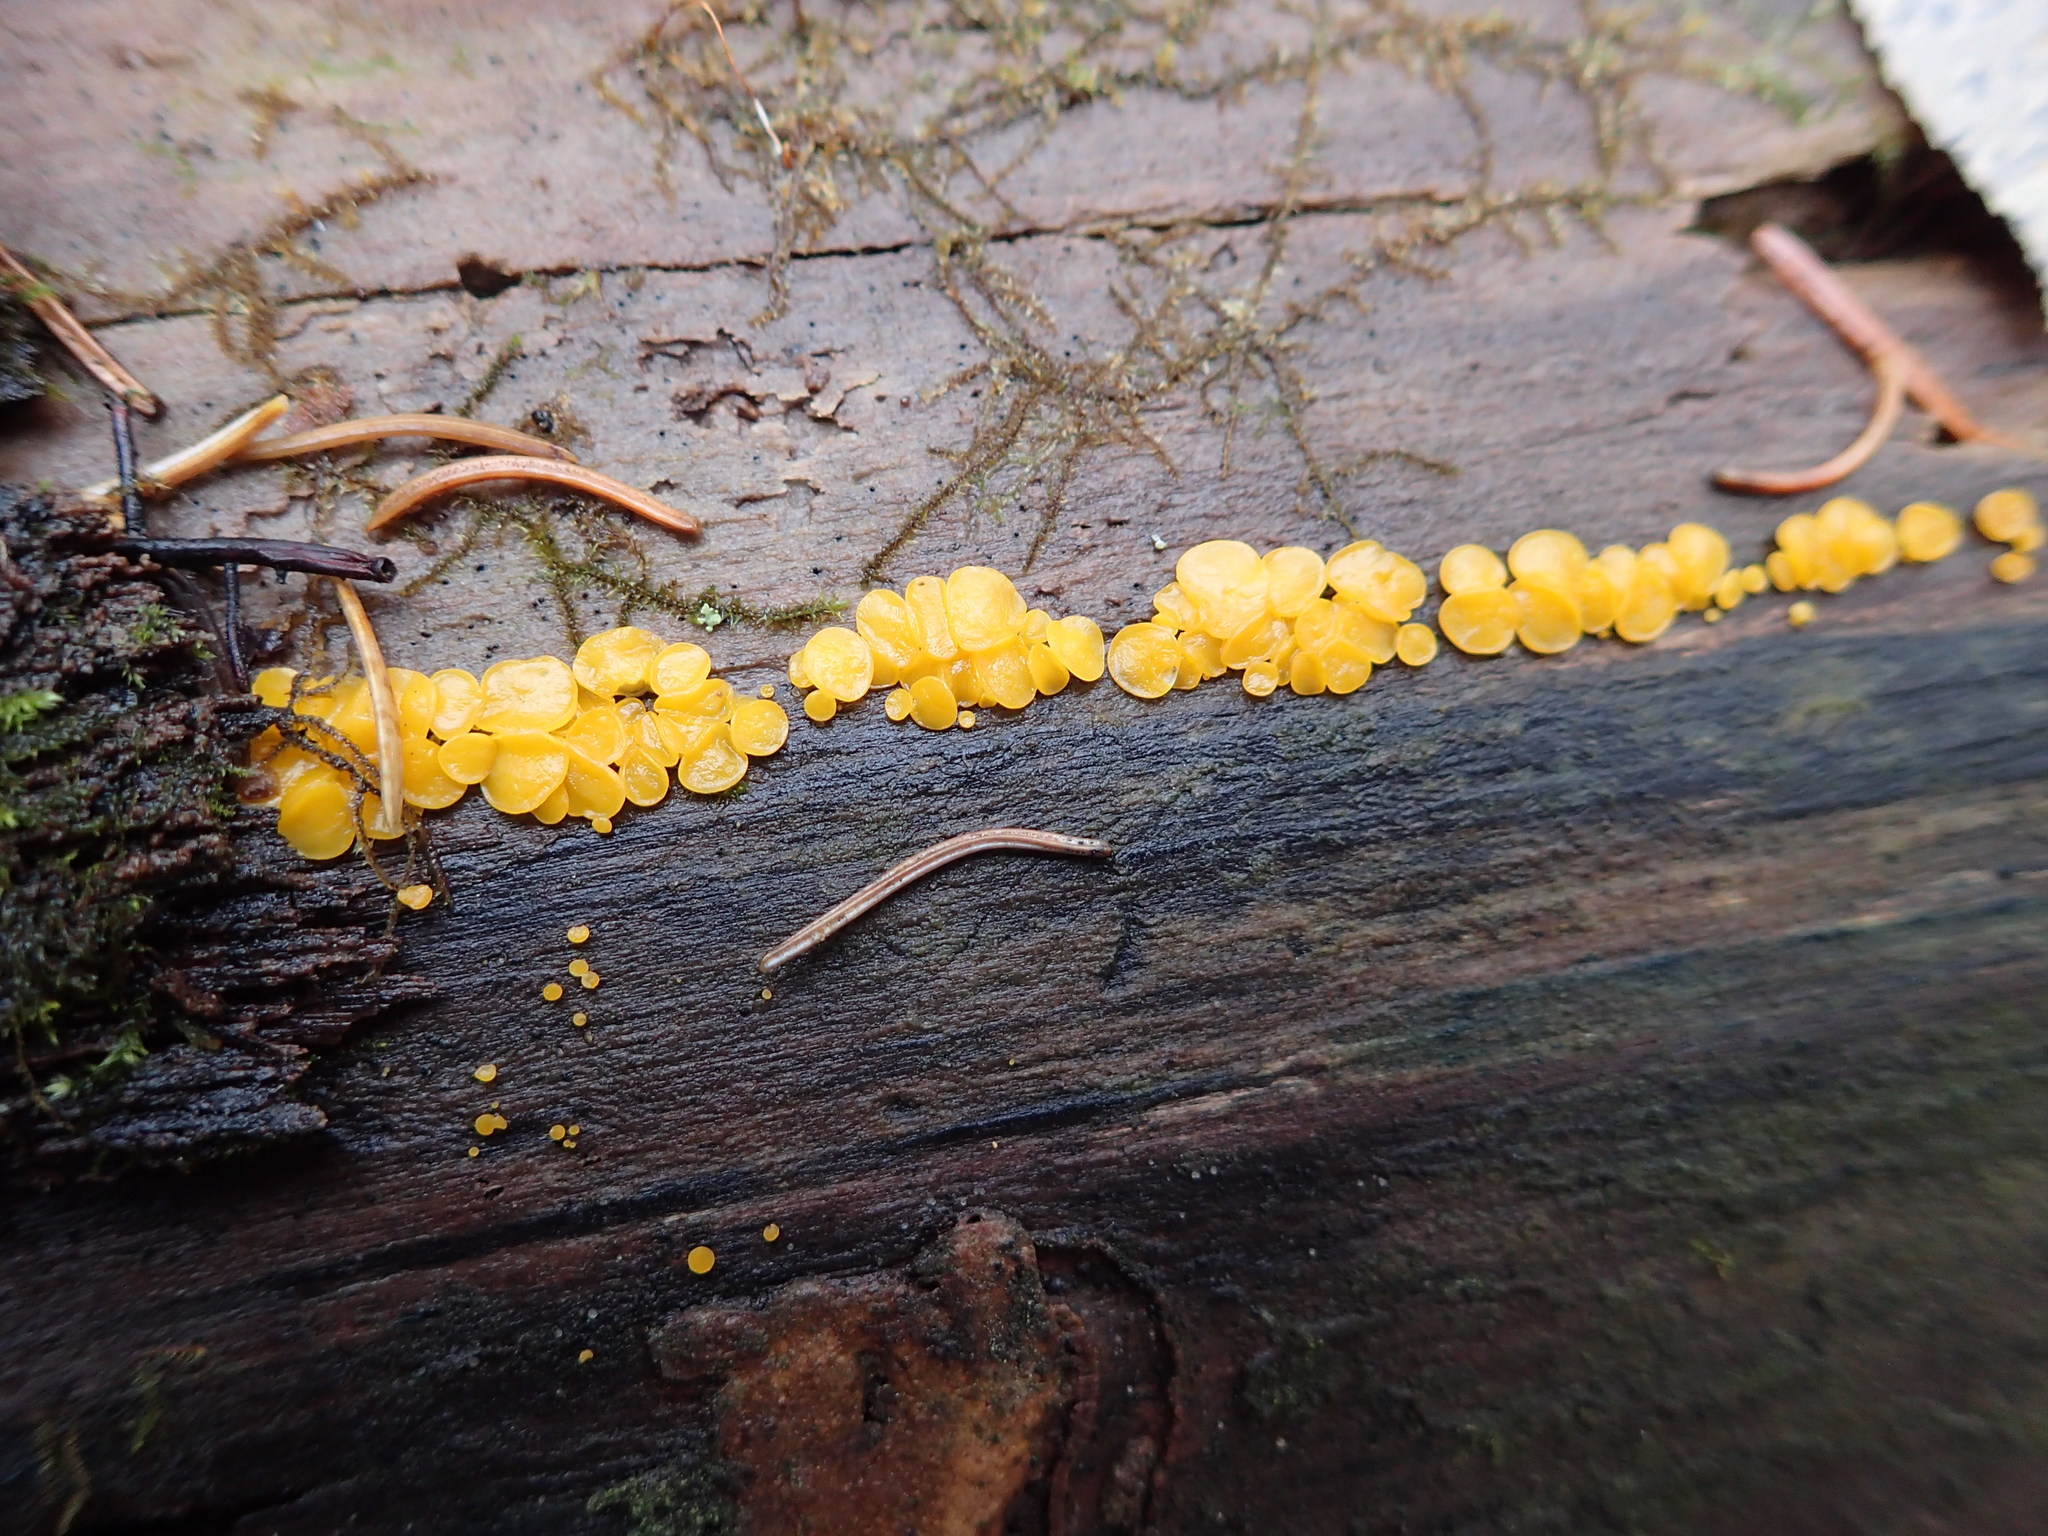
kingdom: Fungi
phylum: Ascomycota
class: Leotiomycetes
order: Helotiales
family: Pezizellaceae
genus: Calycina
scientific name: Calycina citrina
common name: Yellow fairy cups
